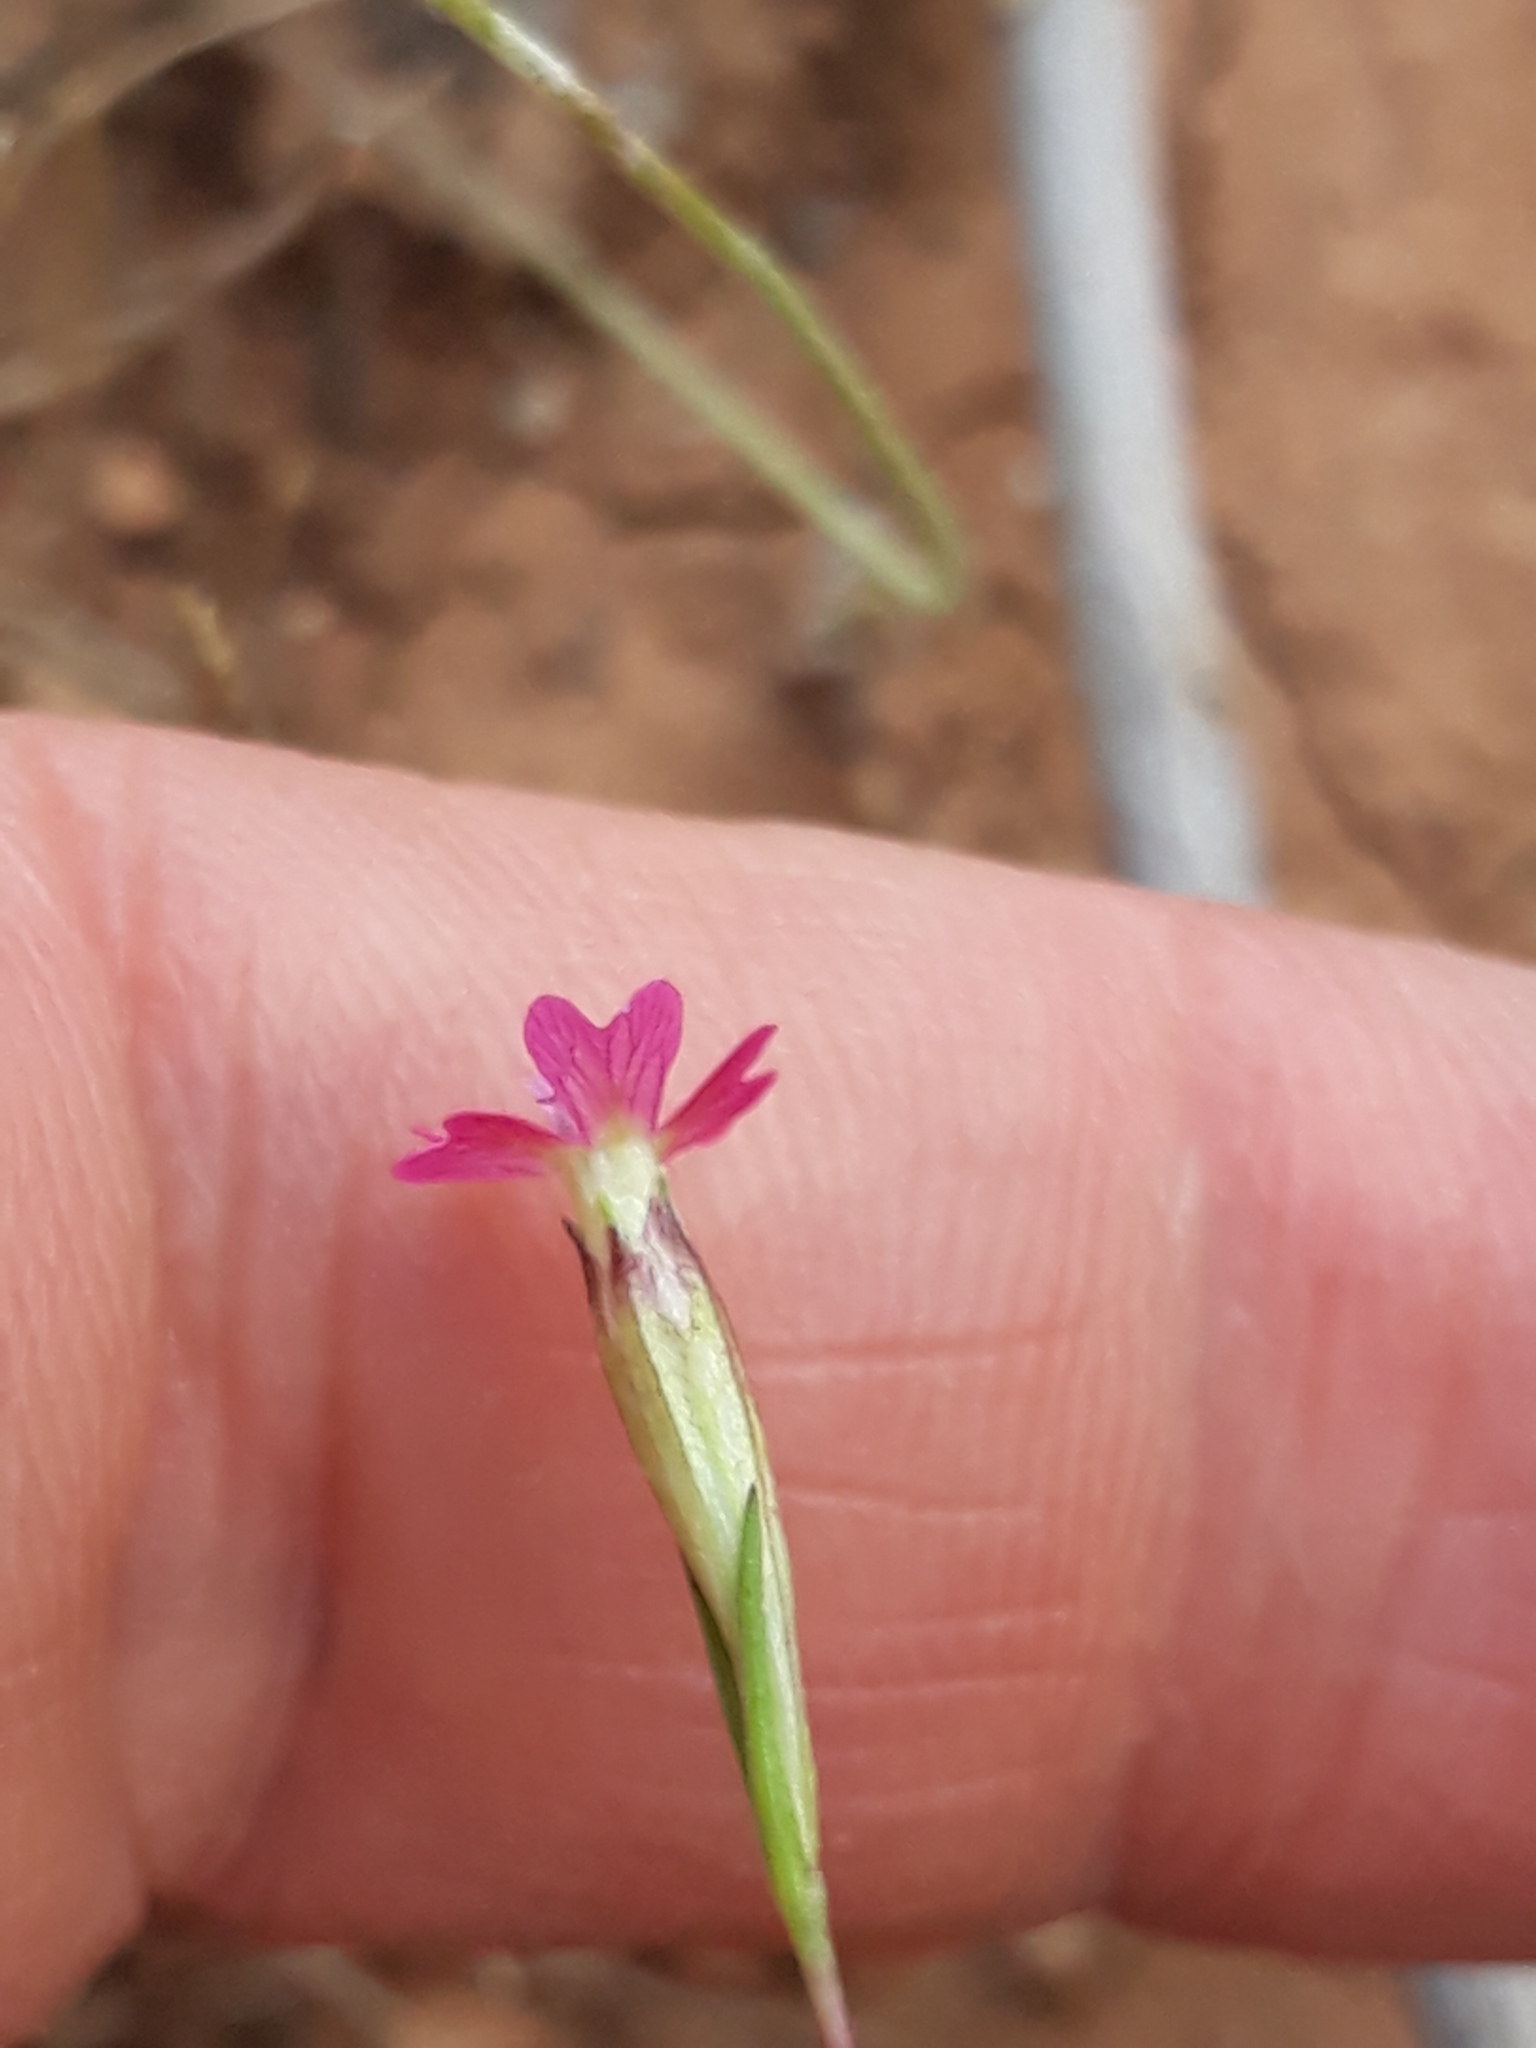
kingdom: Plantae
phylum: Tracheophyta
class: Magnoliopsida
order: Caryophyllales
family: Caryophyllaceae
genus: Silene
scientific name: Silene muscipula
